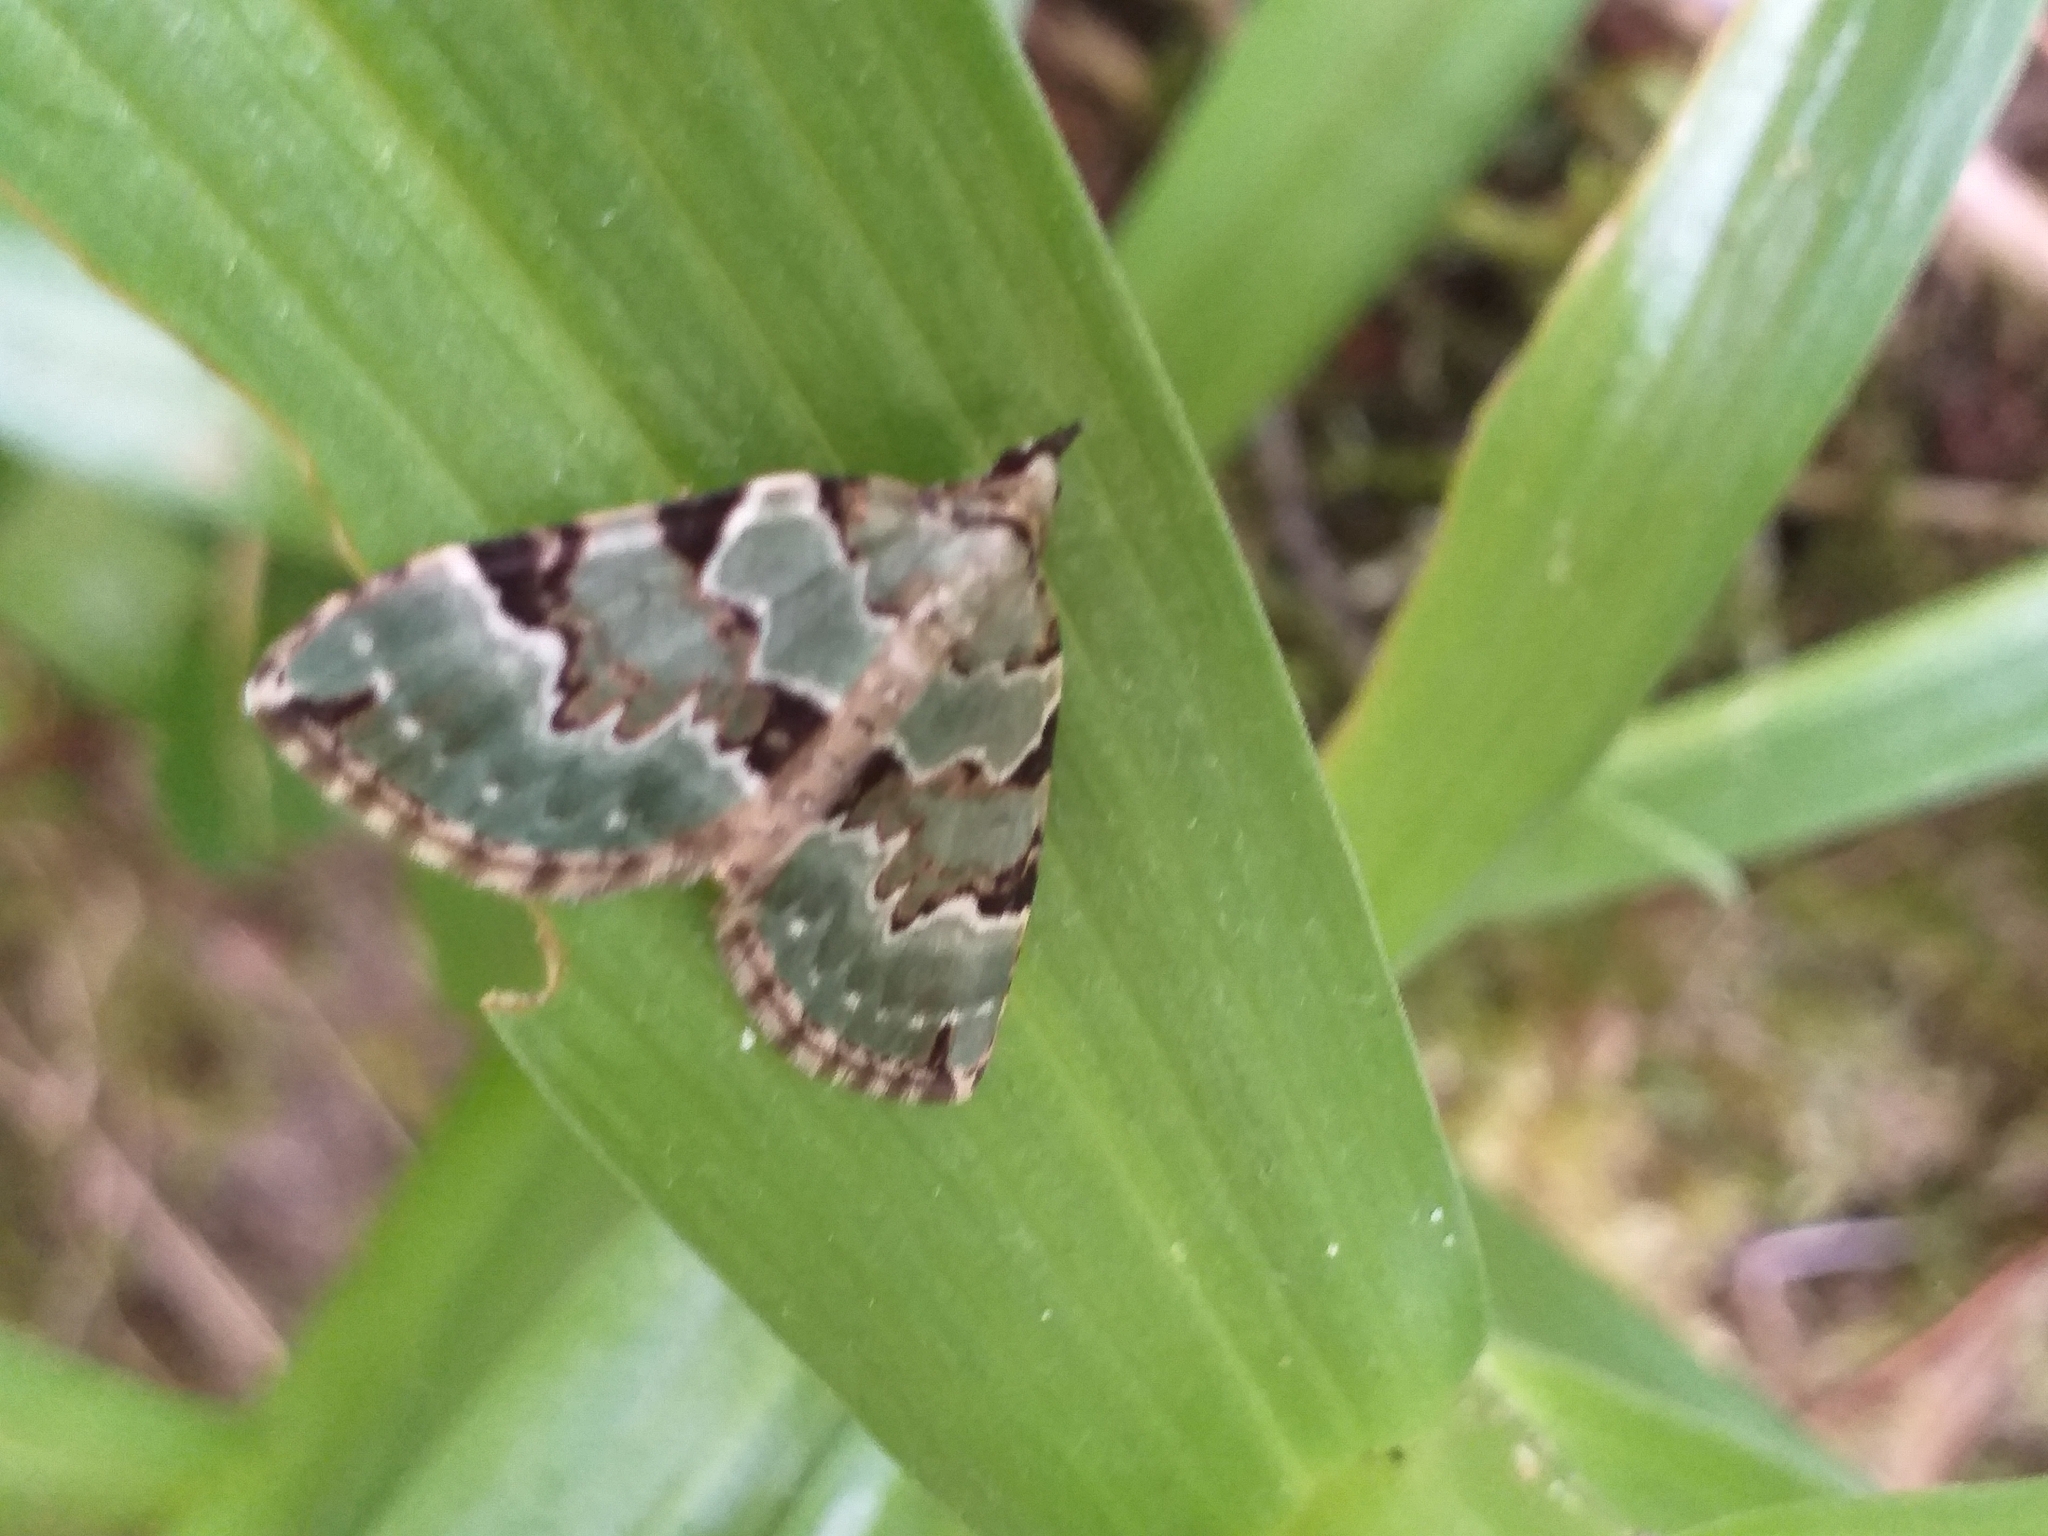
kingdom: Animalia
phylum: Arthropoda
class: Insecta
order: Lepidoptera
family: Geometridae
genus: Colostygia
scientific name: Colostygia pectinataria
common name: Green carpet
